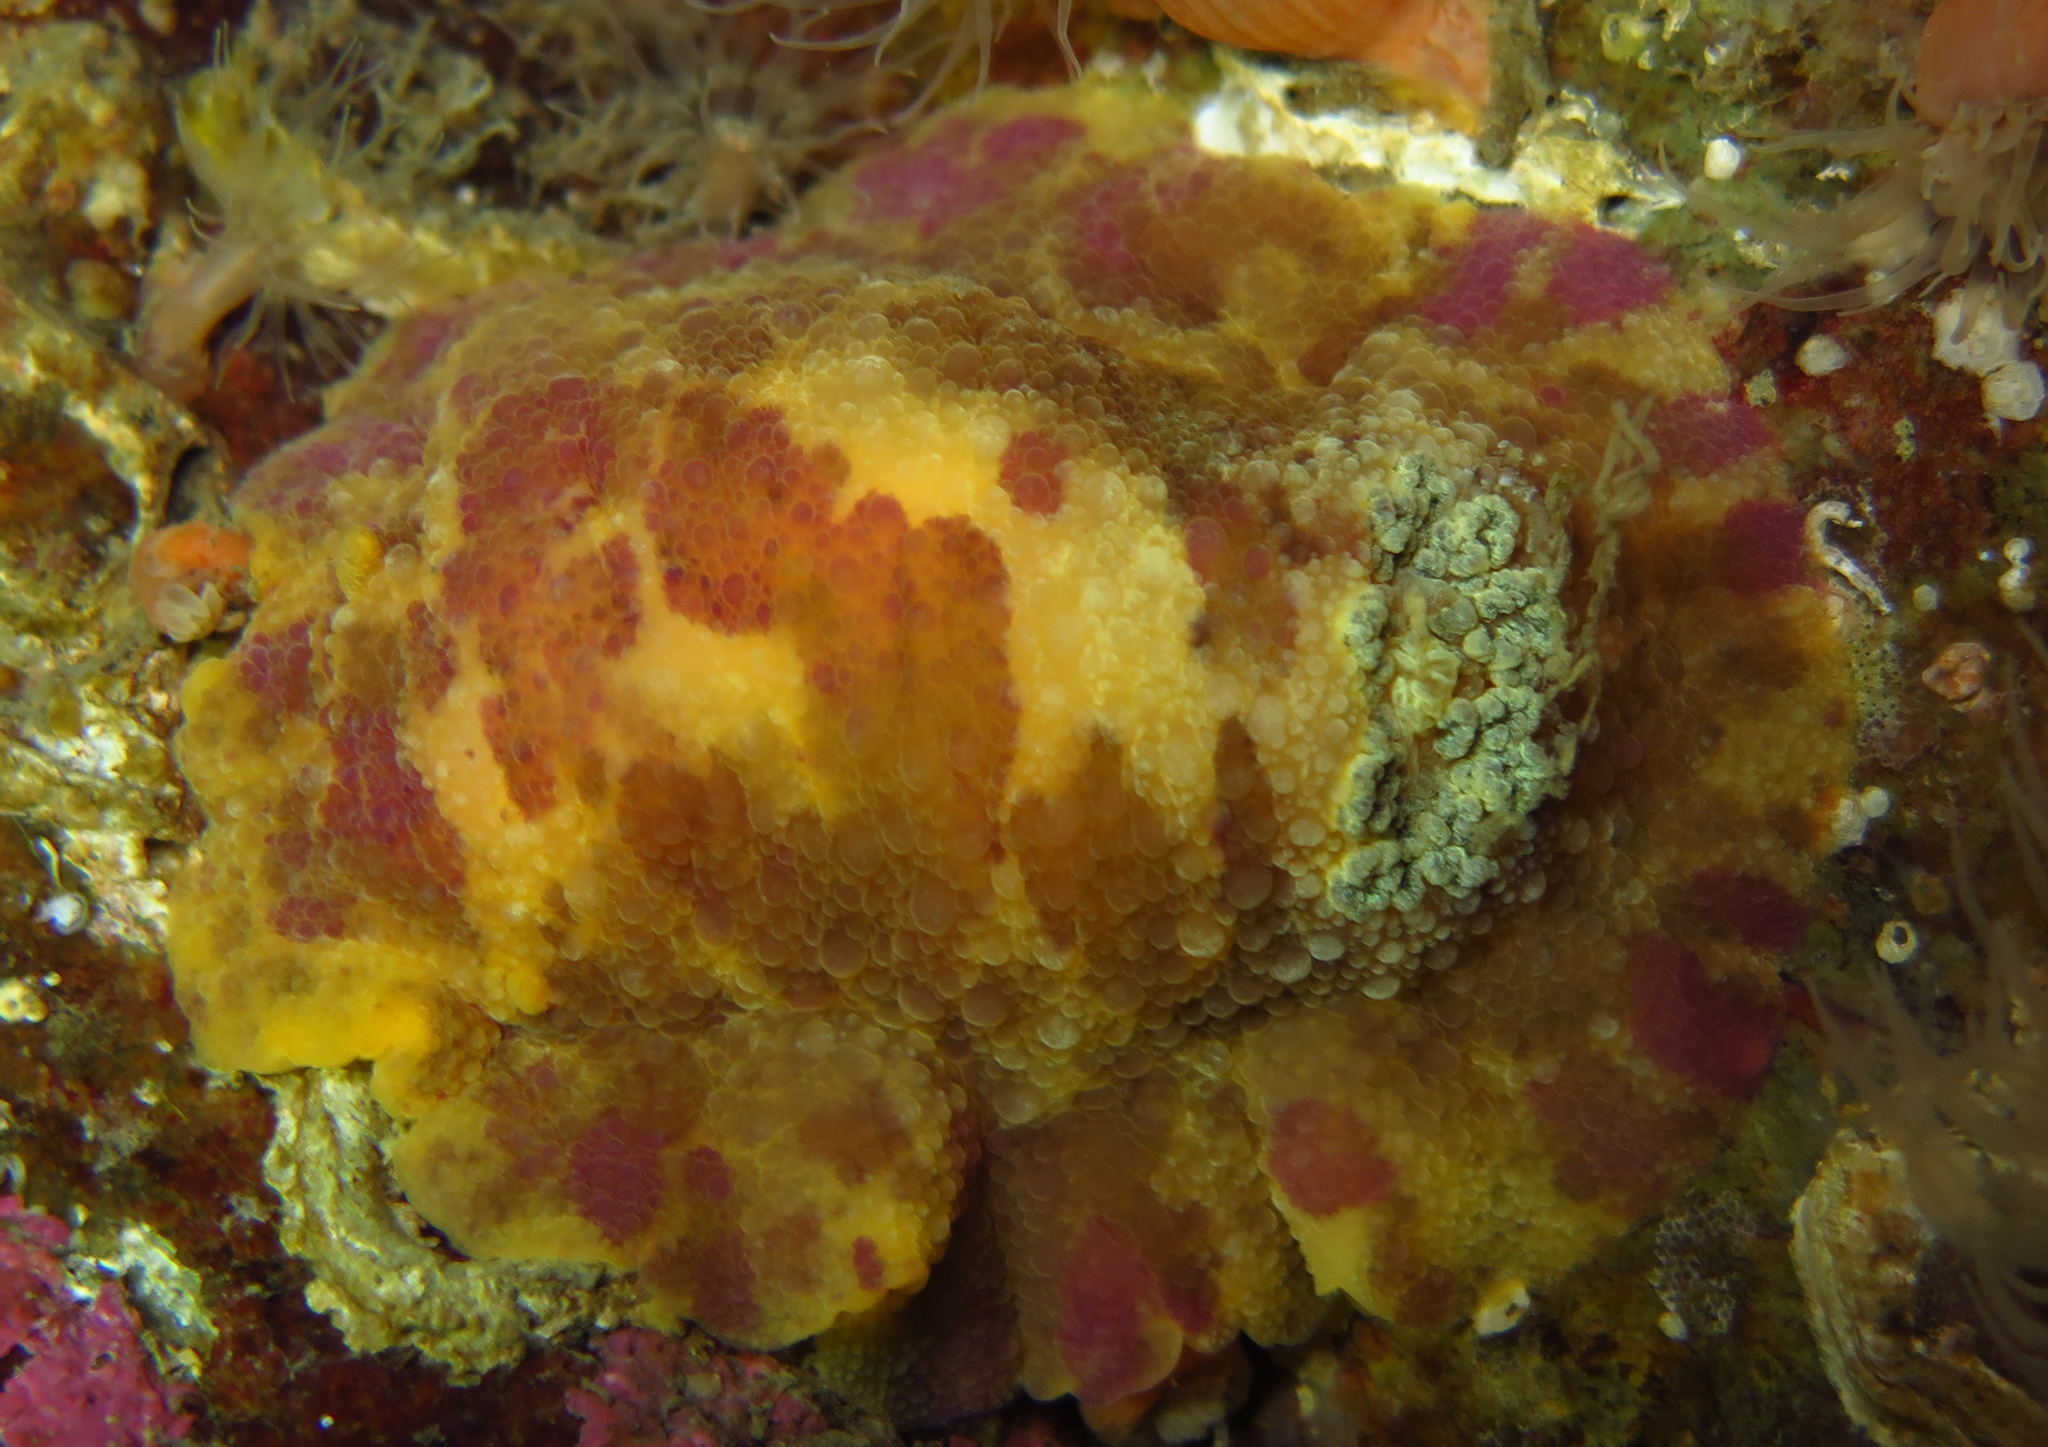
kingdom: Animalia
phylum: Mollusca
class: Gastropoda
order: Nudibranchia
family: Dorididae
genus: Doris
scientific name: Doris pseudoargus
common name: Sea lemon
